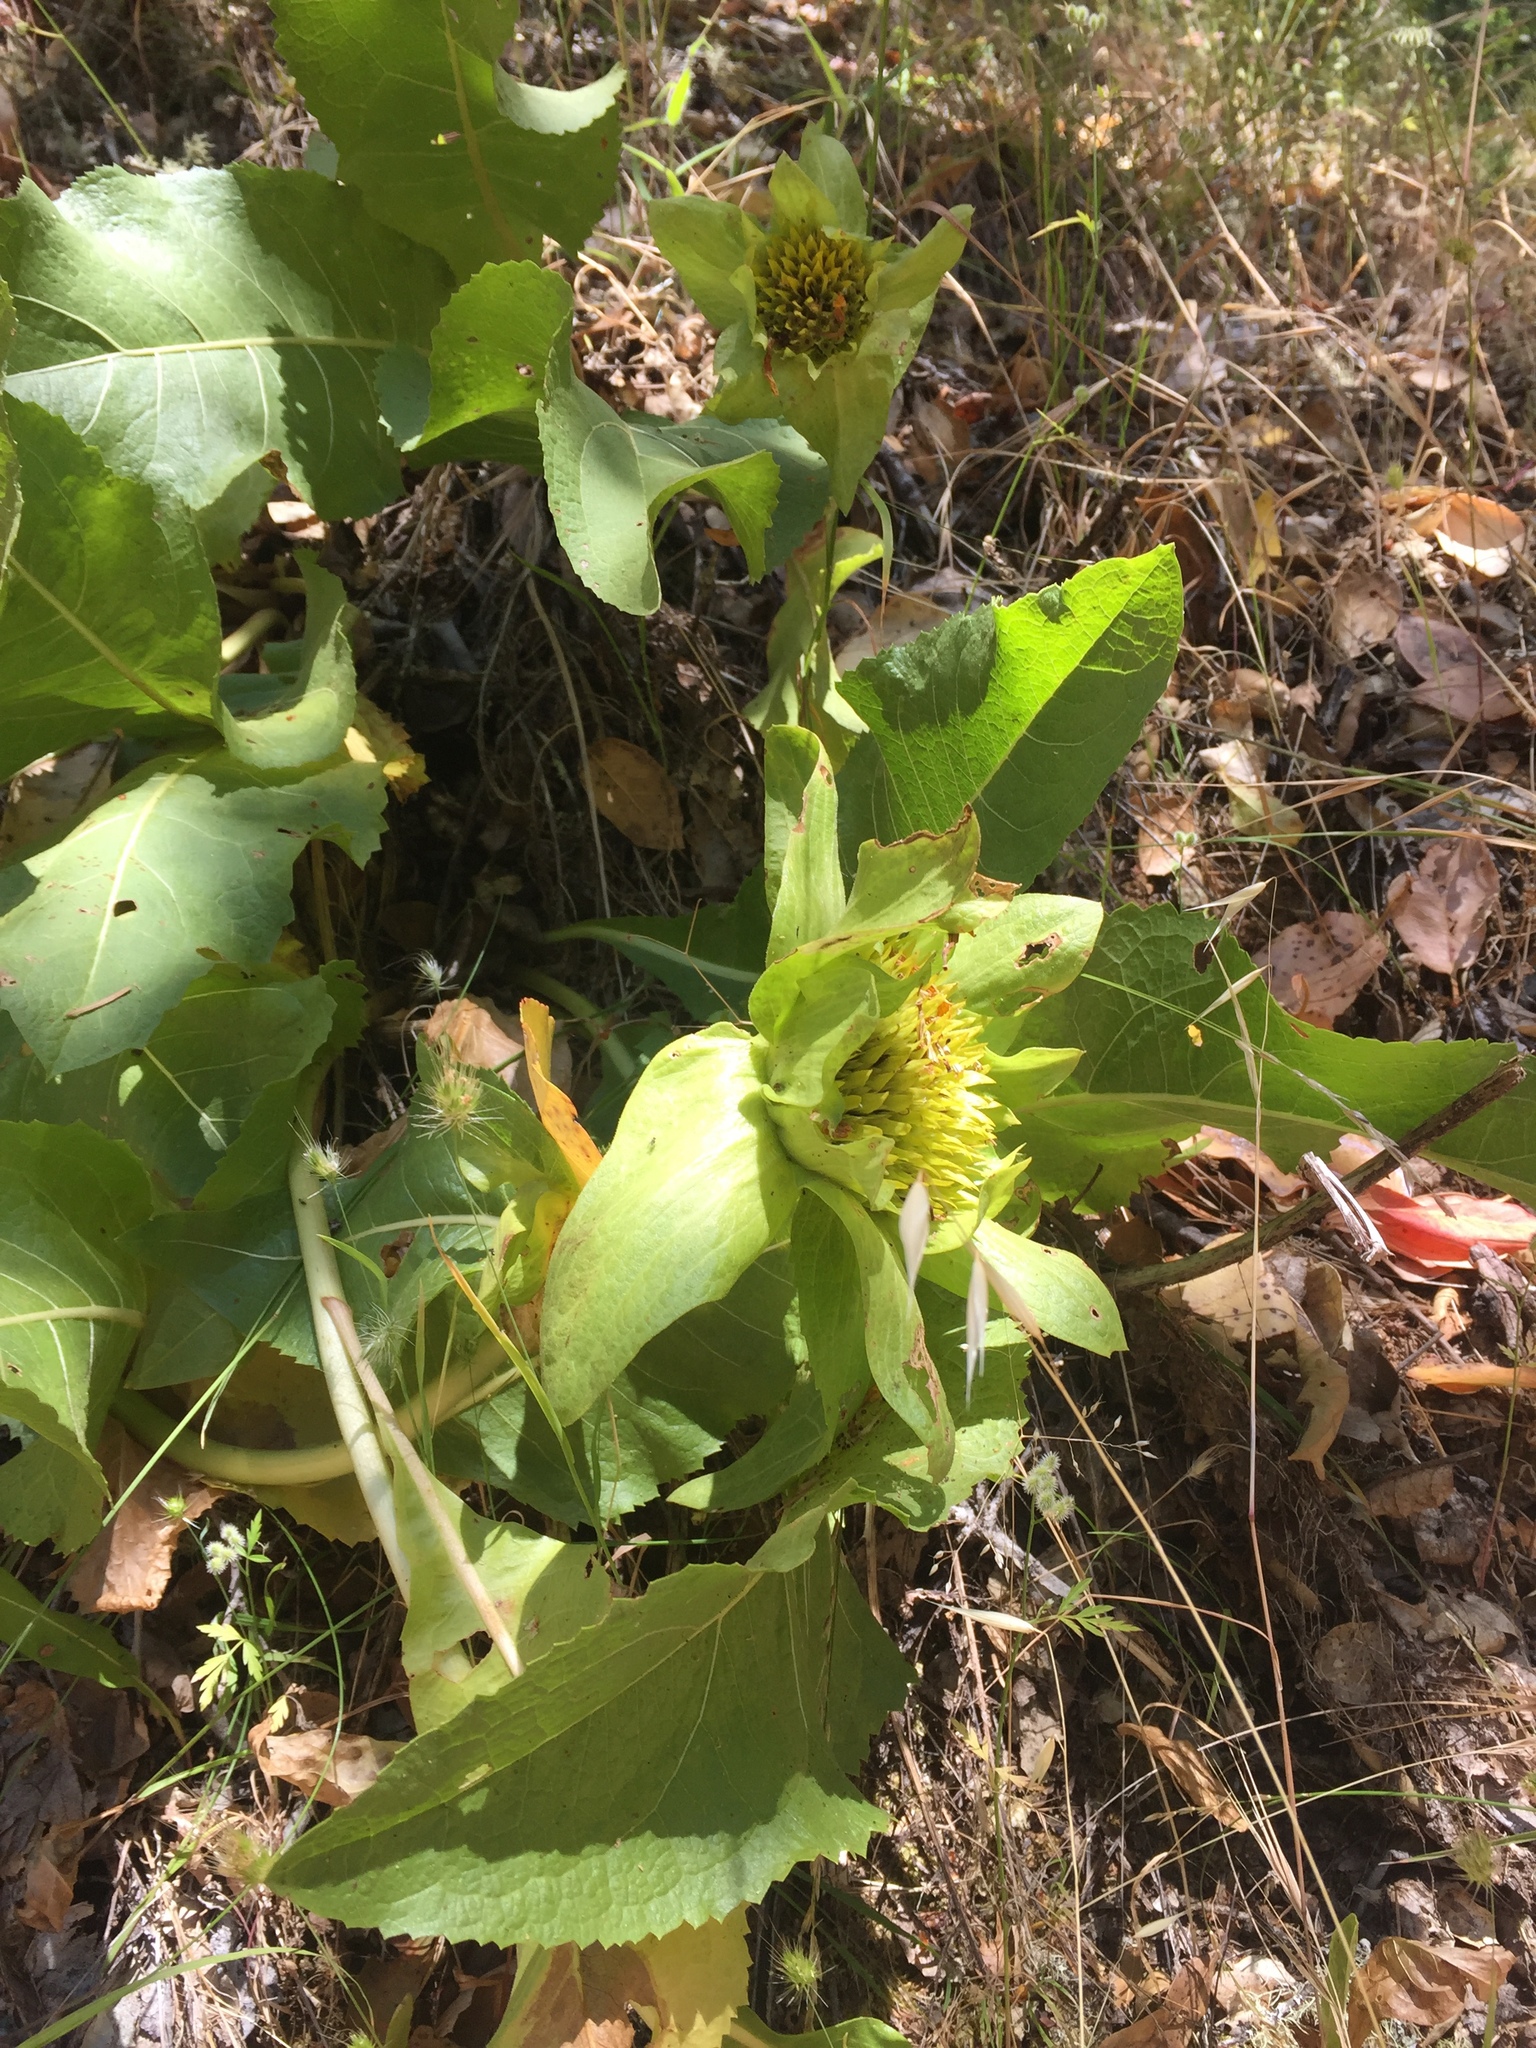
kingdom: Plantae
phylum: Tracheophyta
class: Magnoliopsida
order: Asterales
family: Asteraceae
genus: Wyethia
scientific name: Wyethia glabra
